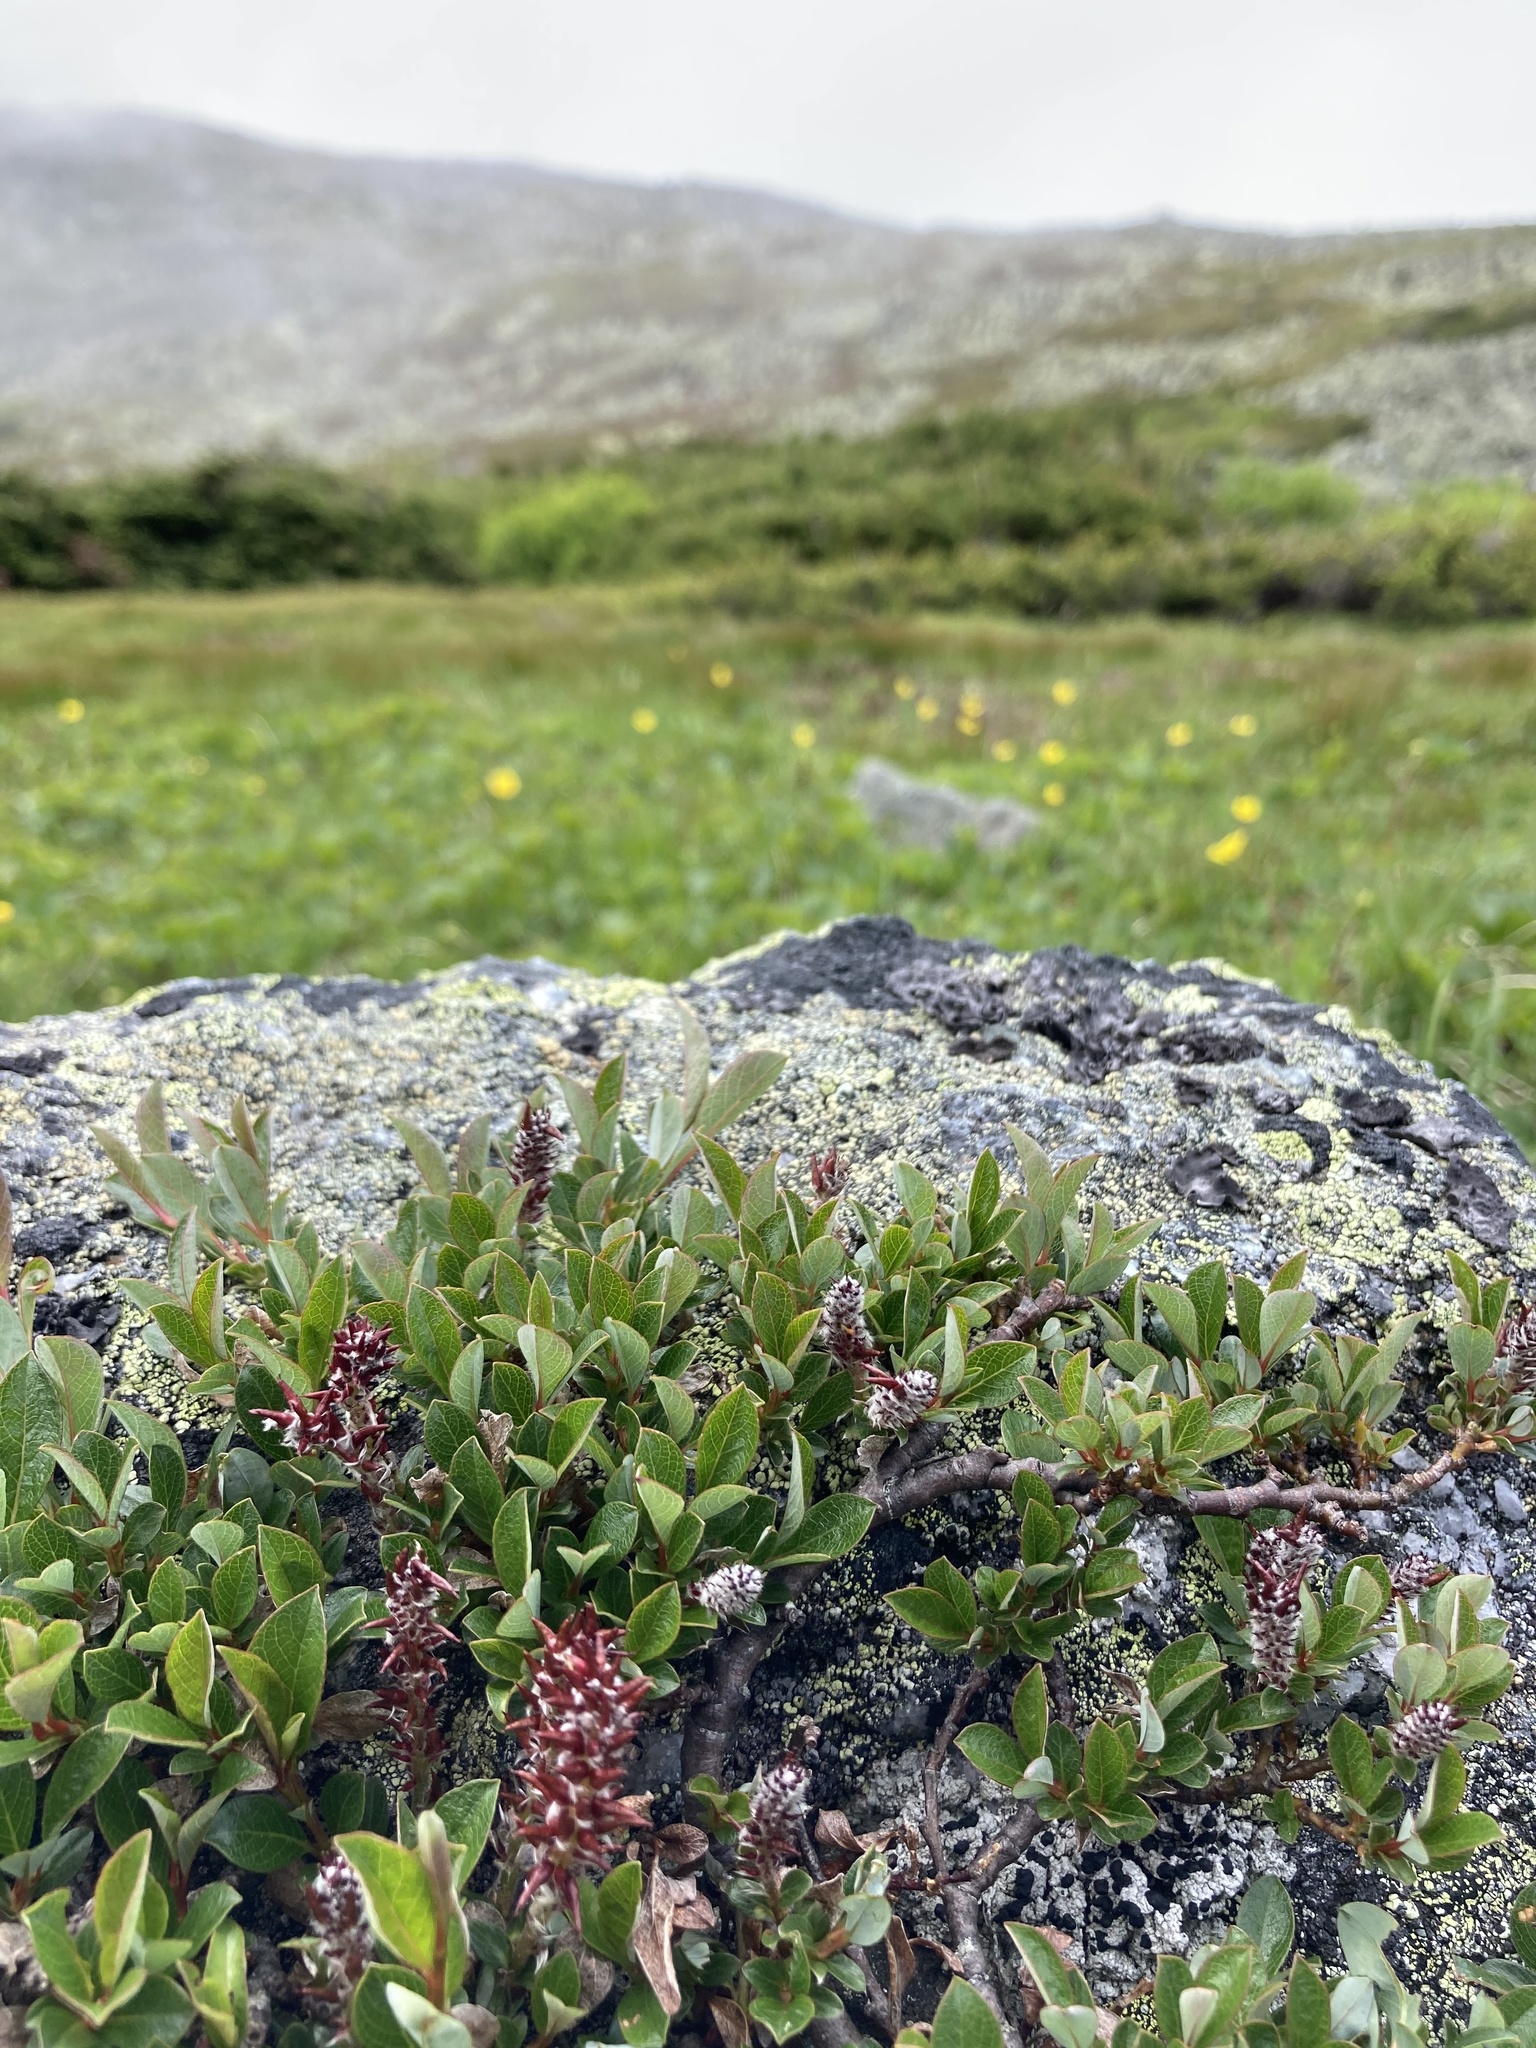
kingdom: Plantae
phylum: Tracheophyta
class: Magnoliopsida
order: Malpighiales
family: Salicaceae
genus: Salix
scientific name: Salix uva-ursi
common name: Bearberry willow
